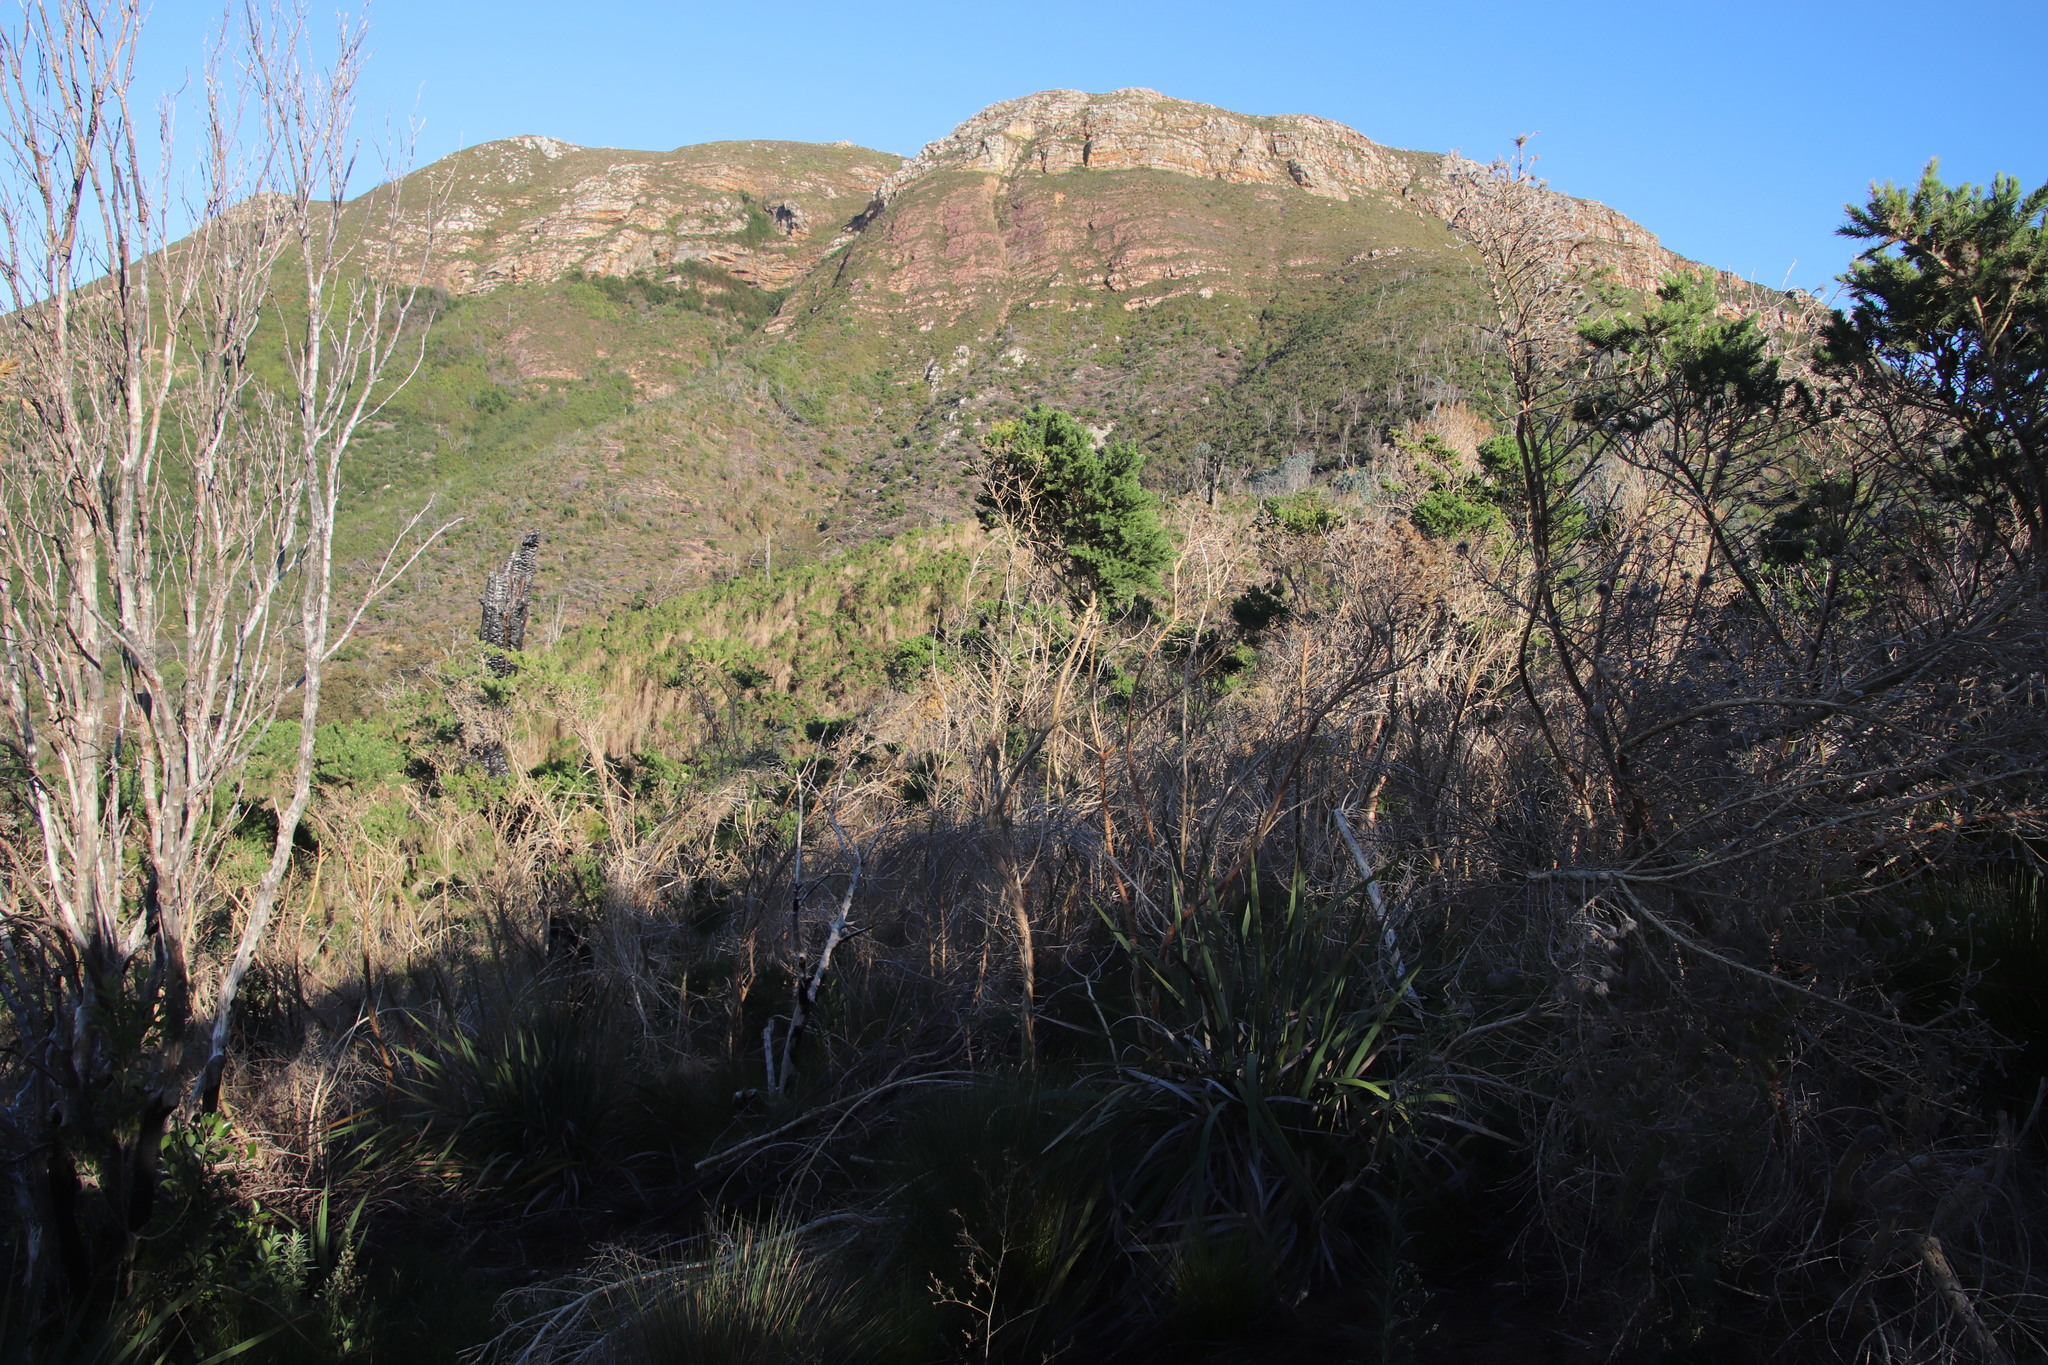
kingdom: Plantae
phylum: Tracheophyta
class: Magnoliopsida
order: Fabales
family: Fabaceae
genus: Aspalathus
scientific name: Aspalathus chenopoda
